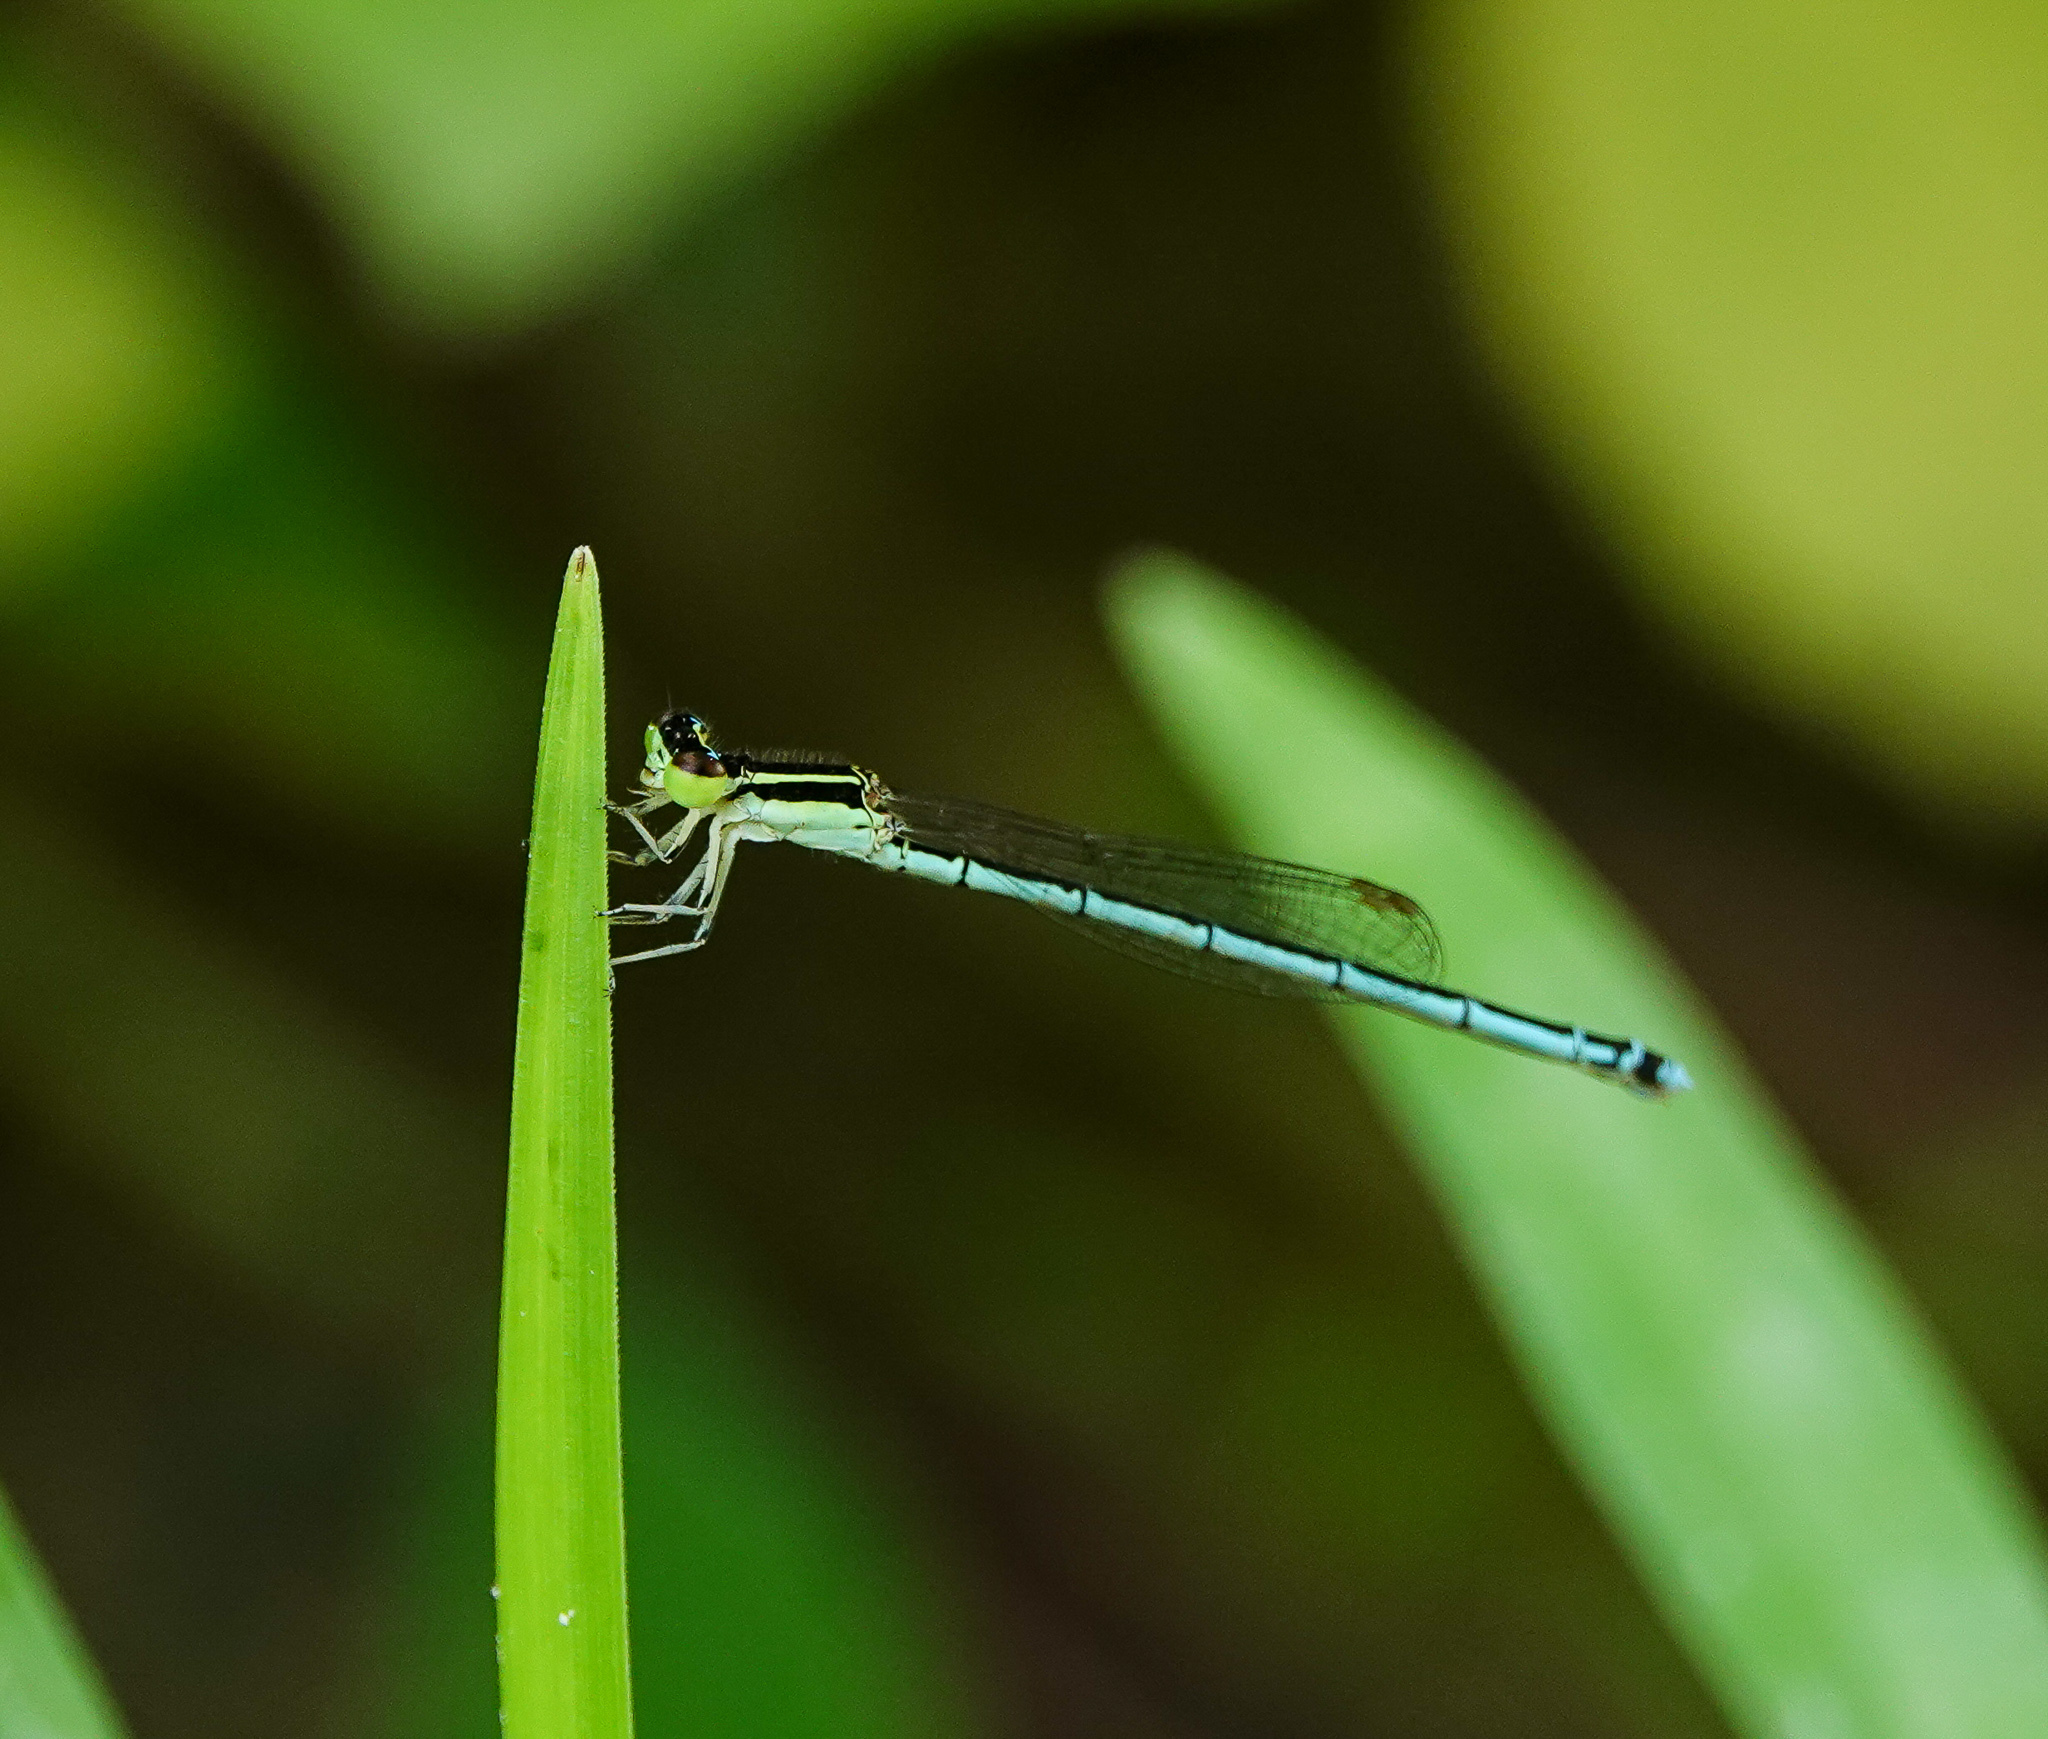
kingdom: Animalia
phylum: Arthropoda
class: Insecta
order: Odonata
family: Coenagrionidae
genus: Agriocnemis
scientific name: Agriocnemis lacteola
